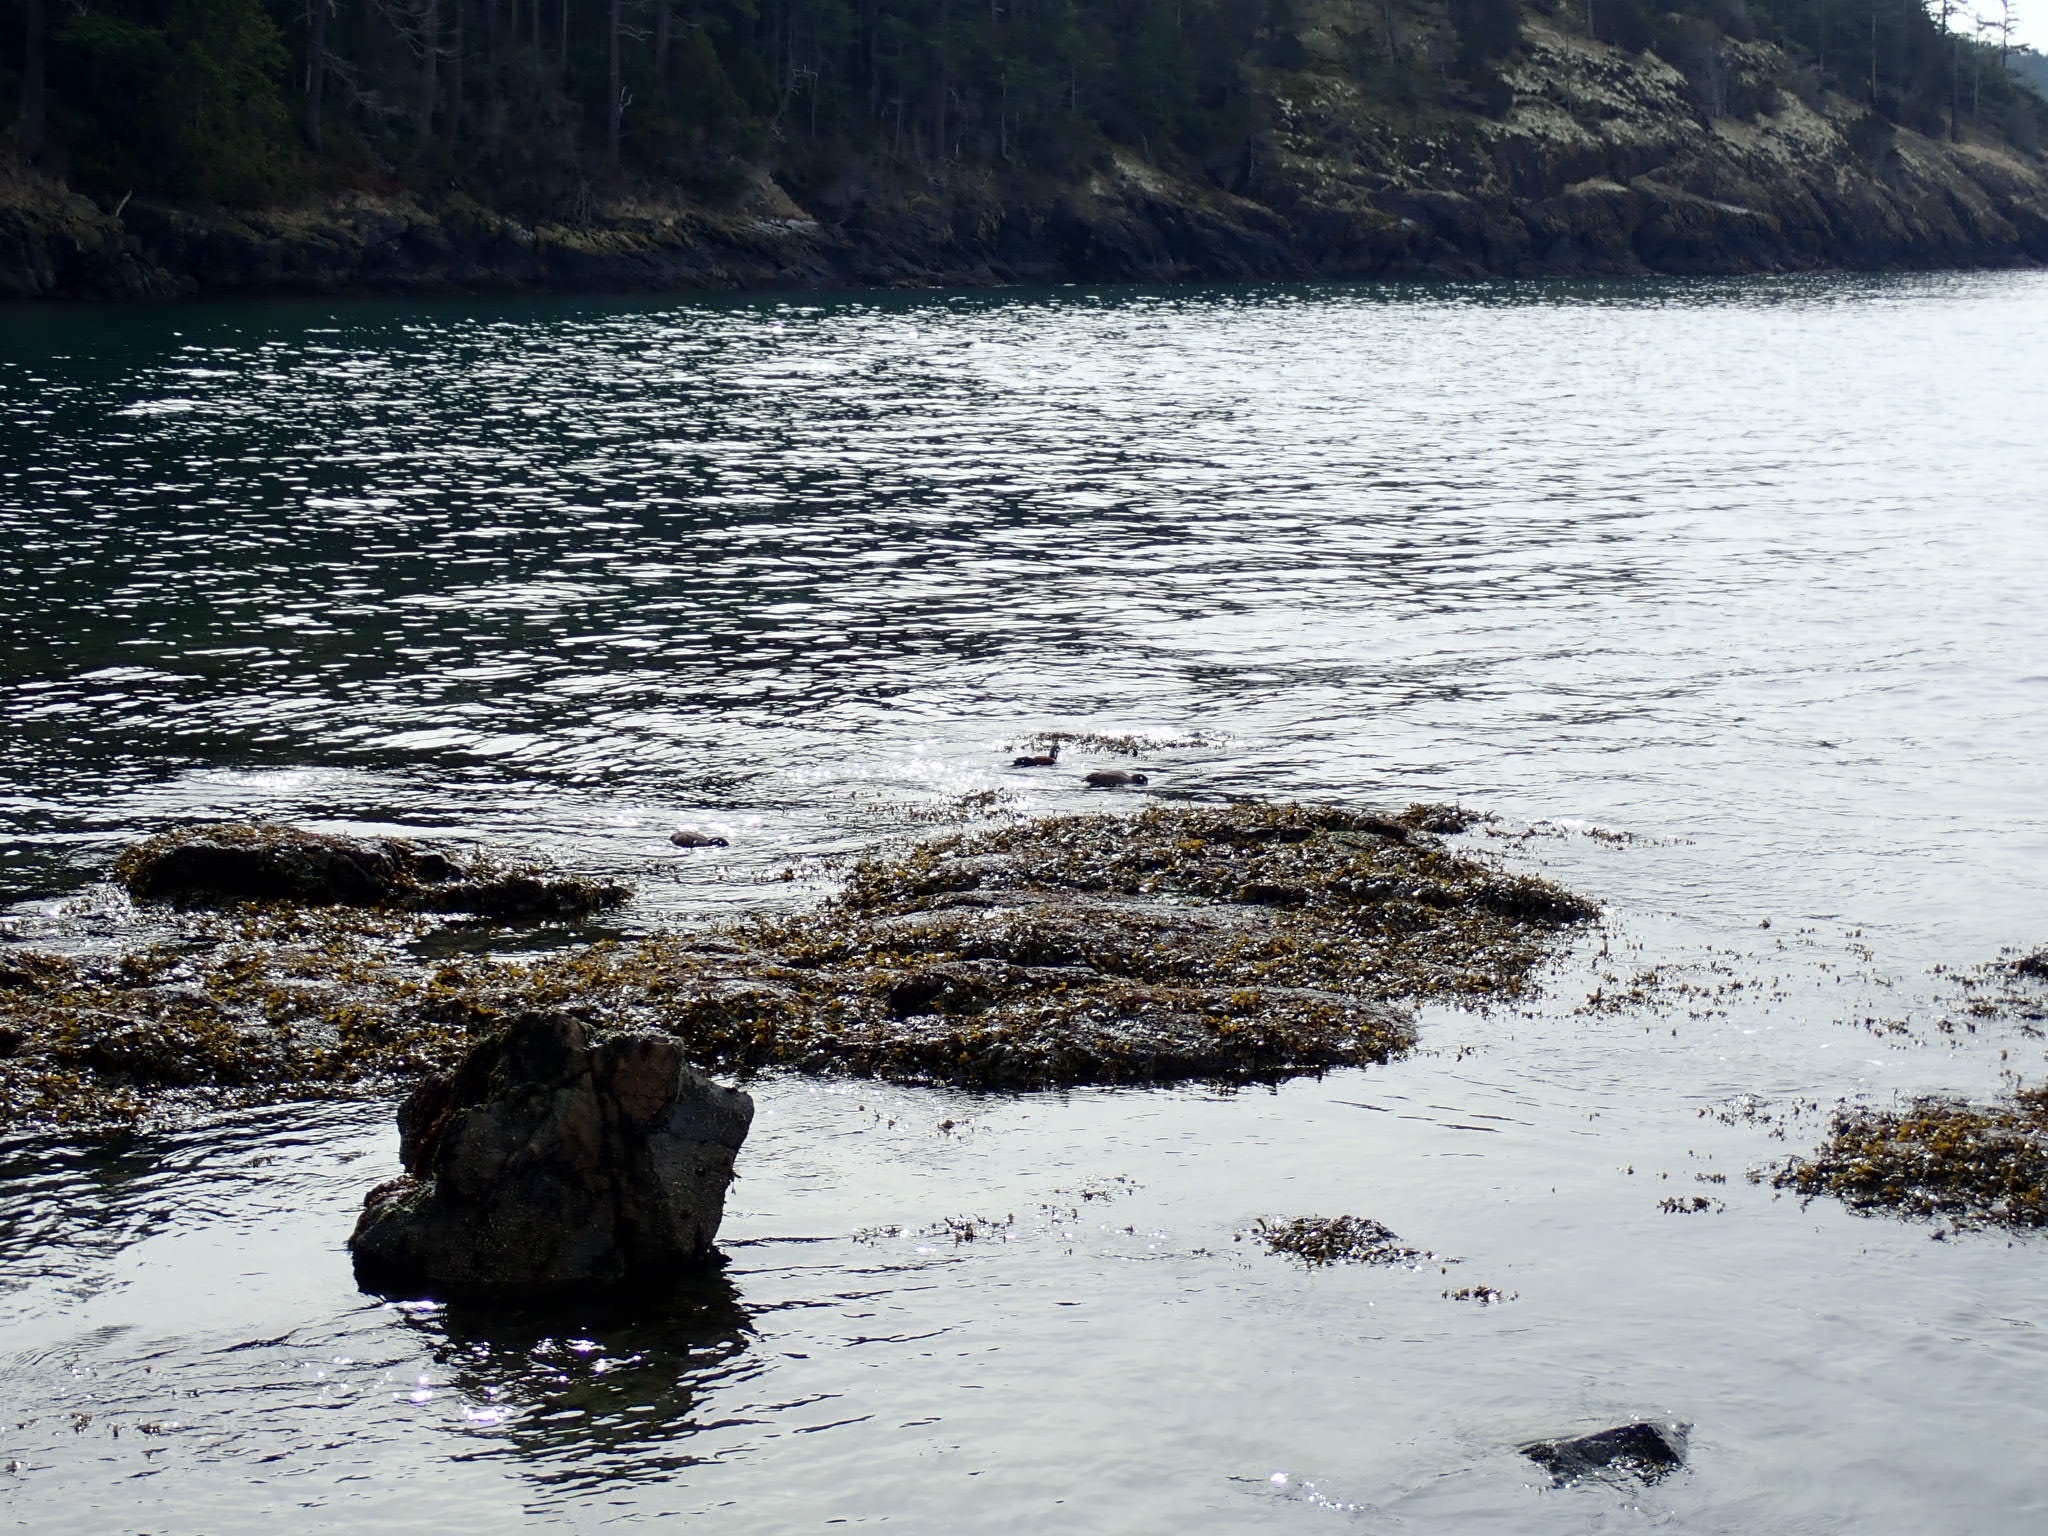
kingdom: Animalia
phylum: Chordata
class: Aves
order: Anseriformes
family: Anatidae
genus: Histrionicus
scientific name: Histrionicus histrionicus
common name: Harlequin duck
